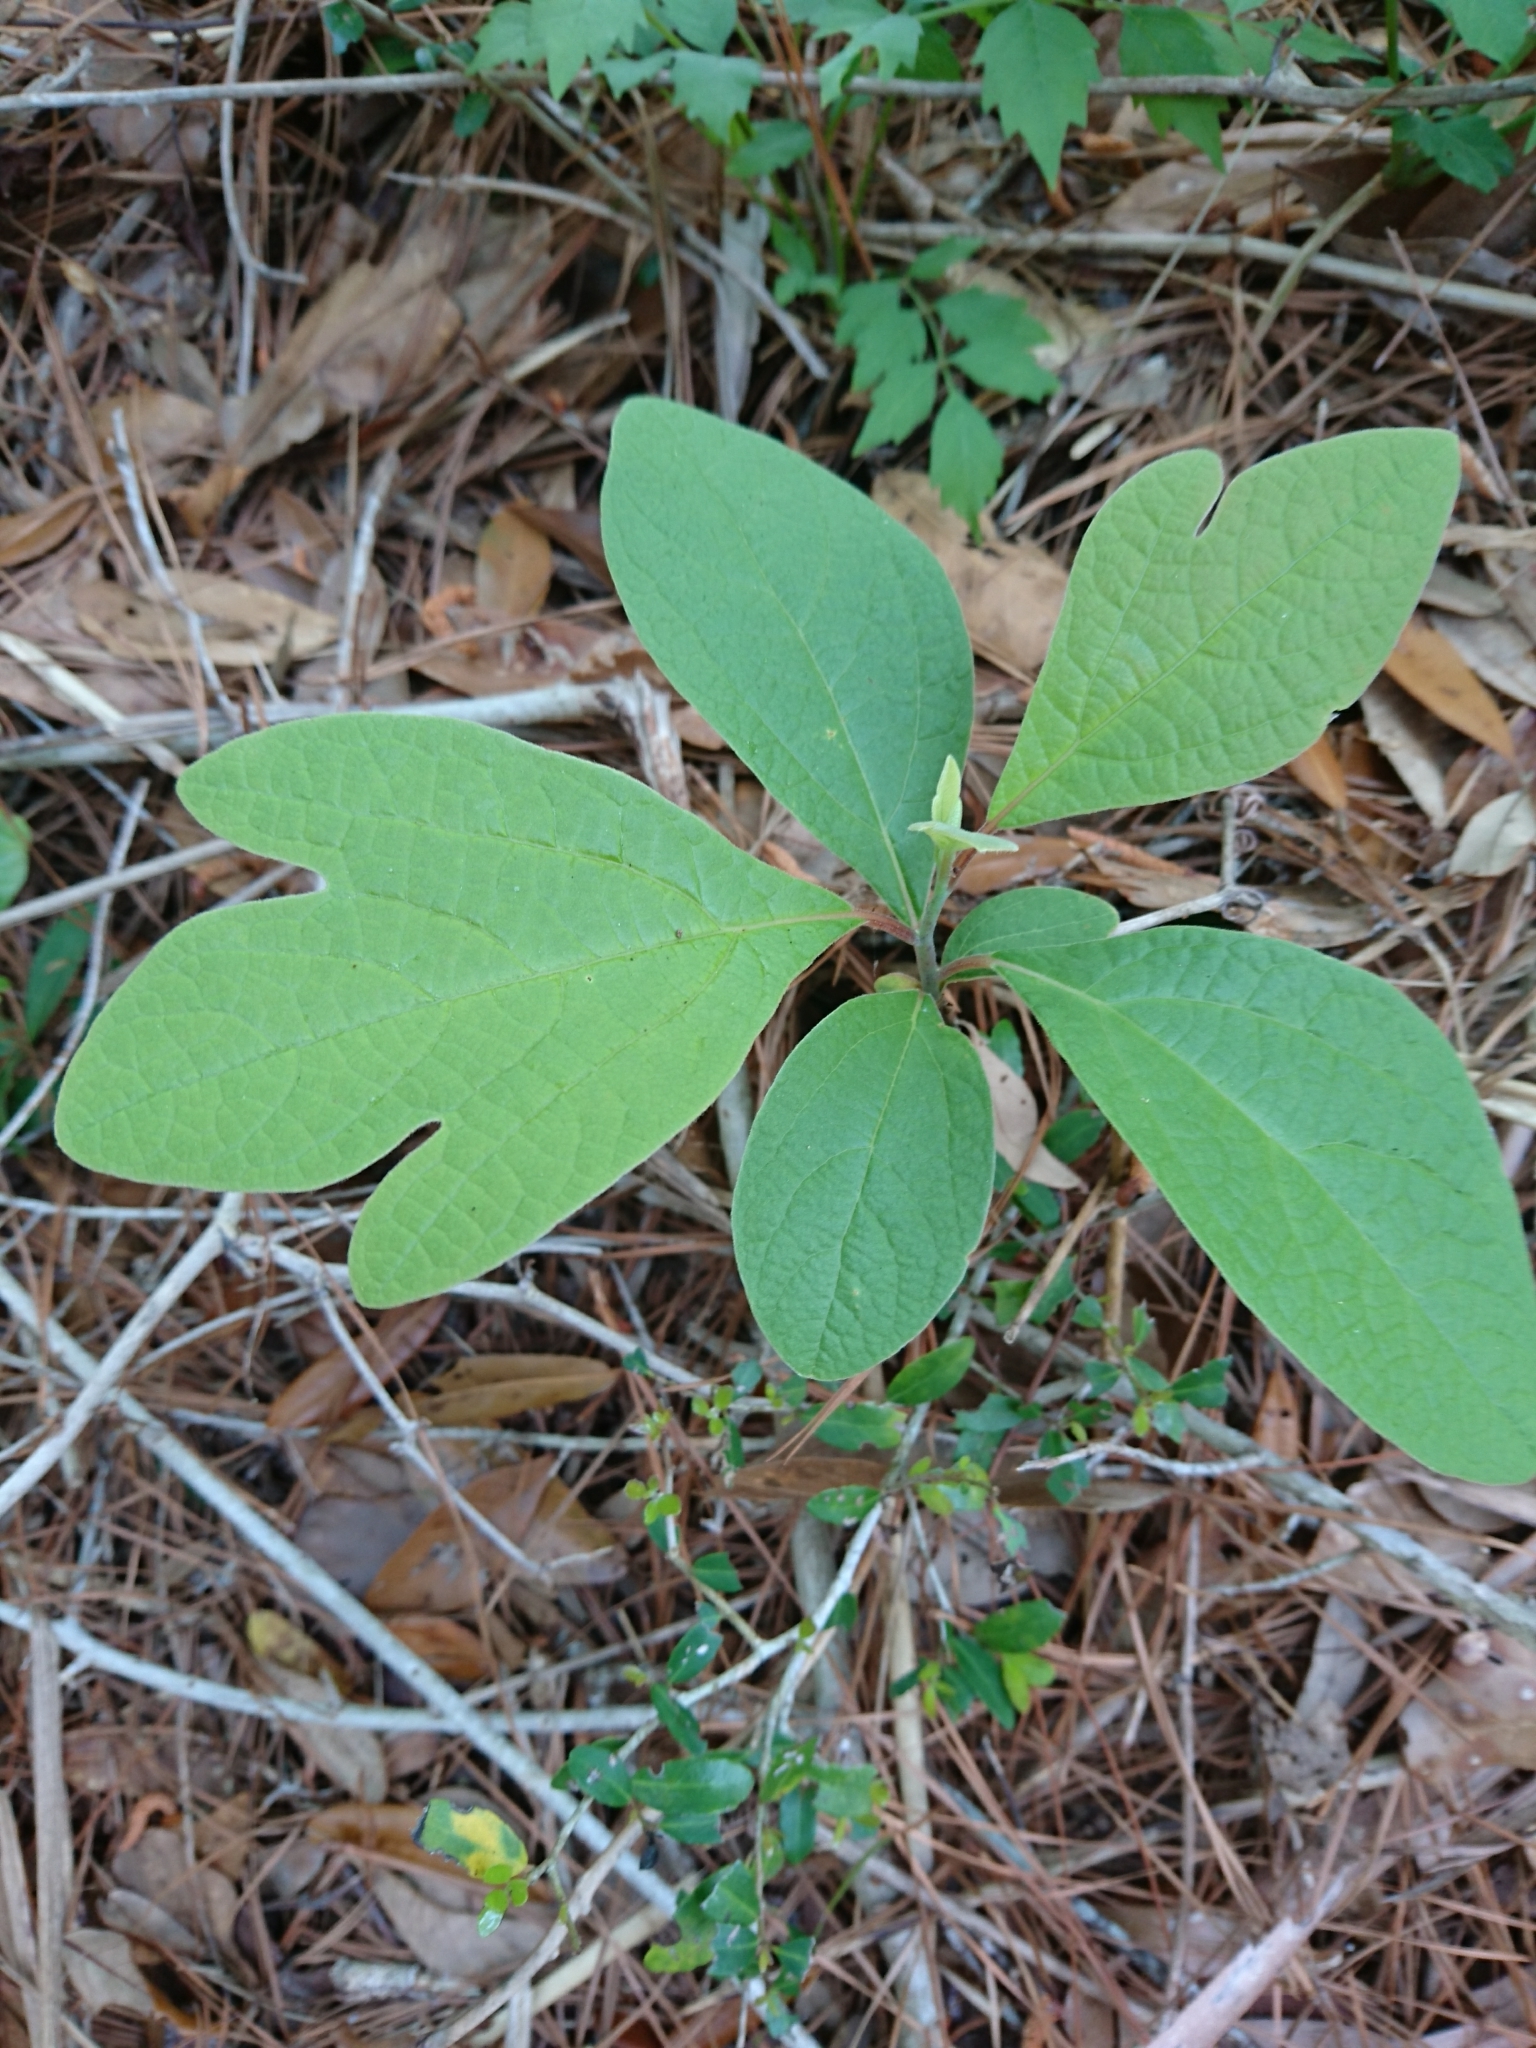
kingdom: Plantae
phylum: Tracheophyta
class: Magnoliopsida
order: Laurales
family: Lauraceae
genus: Sassafras
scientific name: Sassafras albidum
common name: Sassafras
